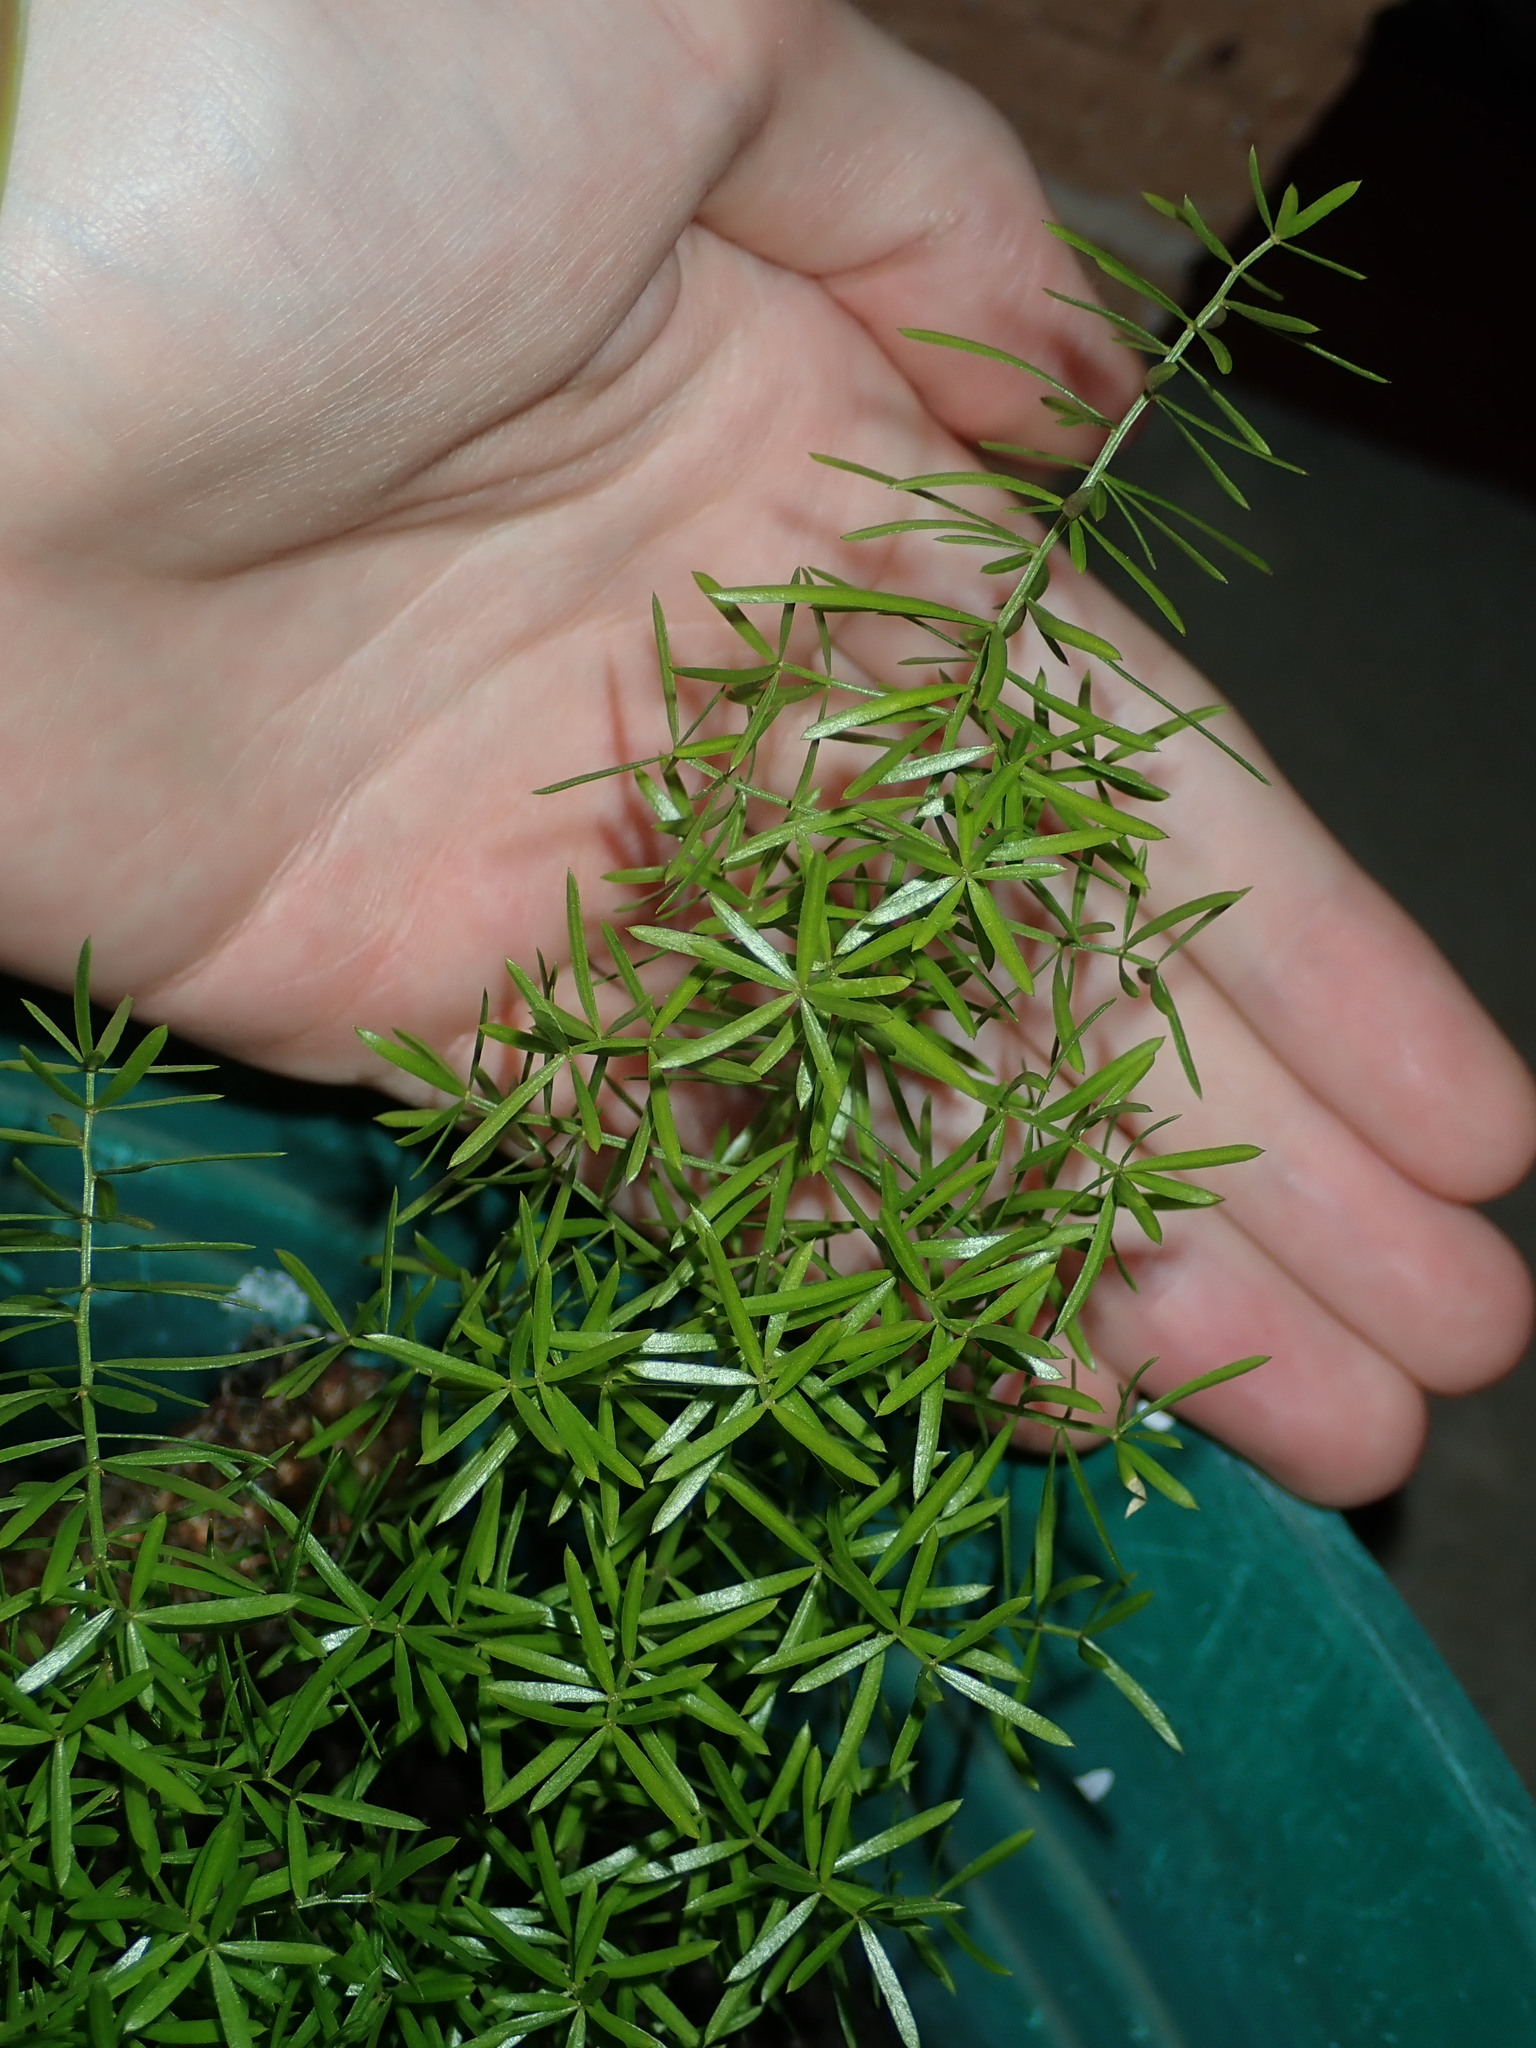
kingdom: Plantae
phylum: Tracheophyta
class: Liliopsida
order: Asparagales
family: Asparagaceae
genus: Asparagus
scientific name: Asparagus aethiopicus
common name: Sprenger's asparagus fern
